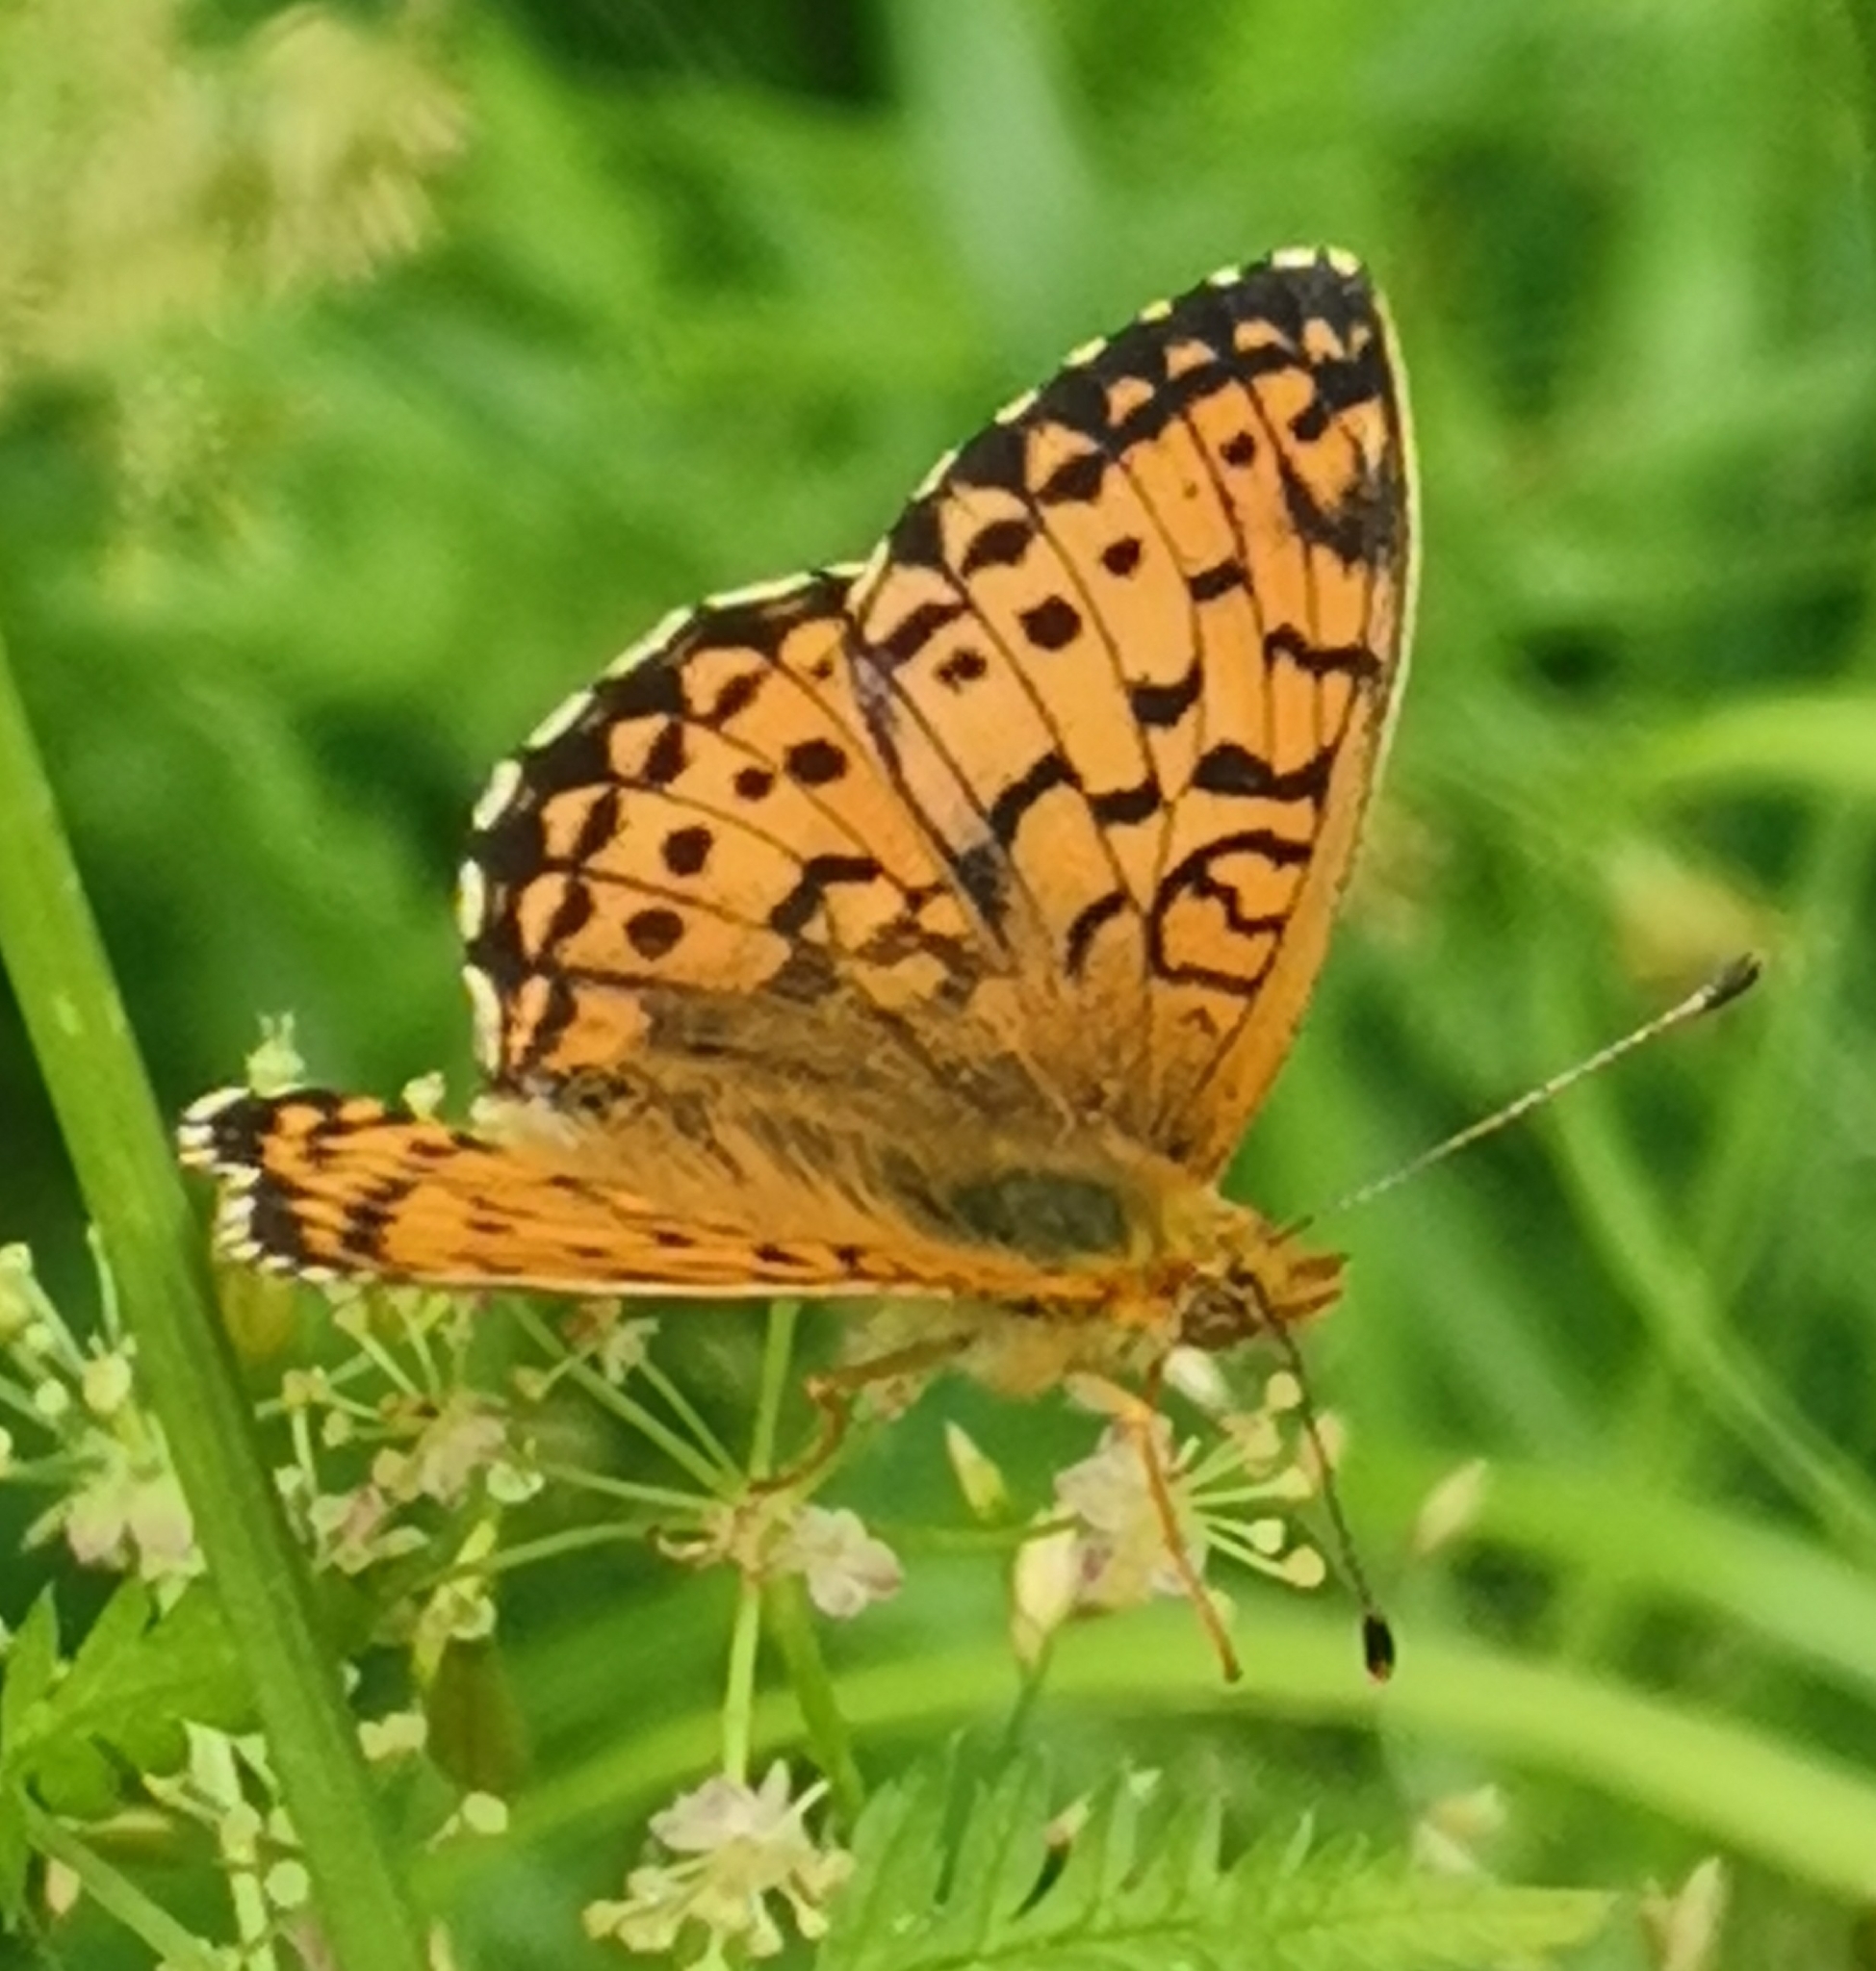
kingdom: Animalia
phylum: Arthropoda
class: Insecta
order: Lepidoptera
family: Nymphalidae
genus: Brenthis
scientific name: Brenthis ino
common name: Lesser marbled fritillary
